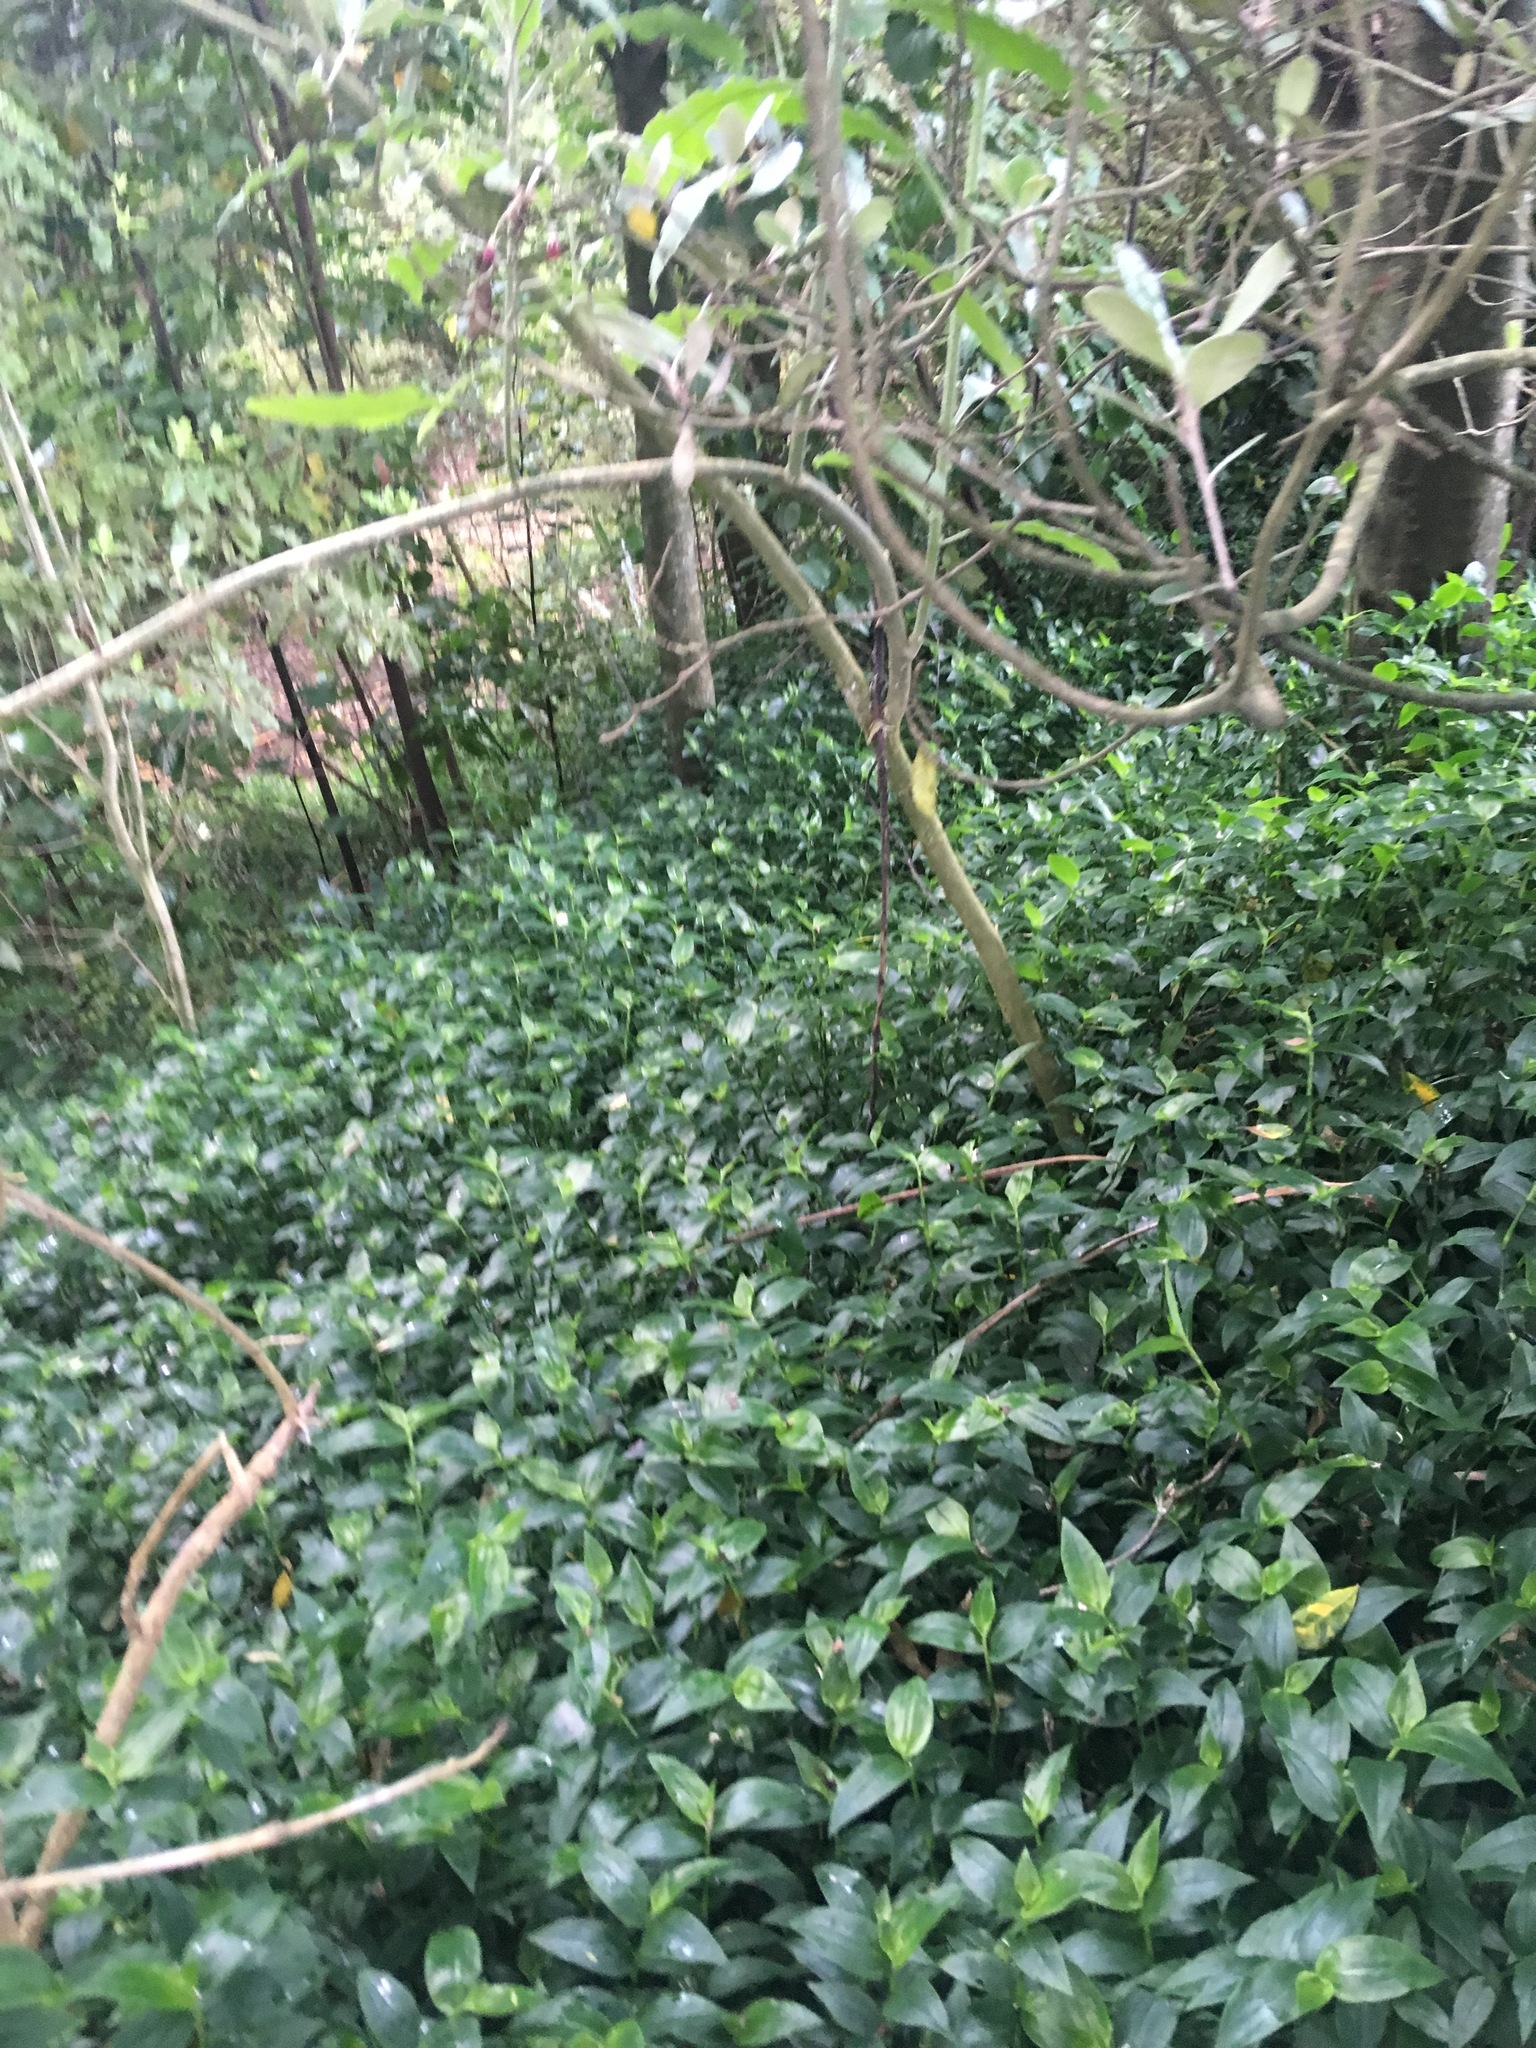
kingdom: Plantae
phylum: Tracheophyta
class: Liliopsida
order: Commelinales
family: Commelinaceae
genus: Tradescantia
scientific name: Tradescantia fluminensis
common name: Wandering-jew
